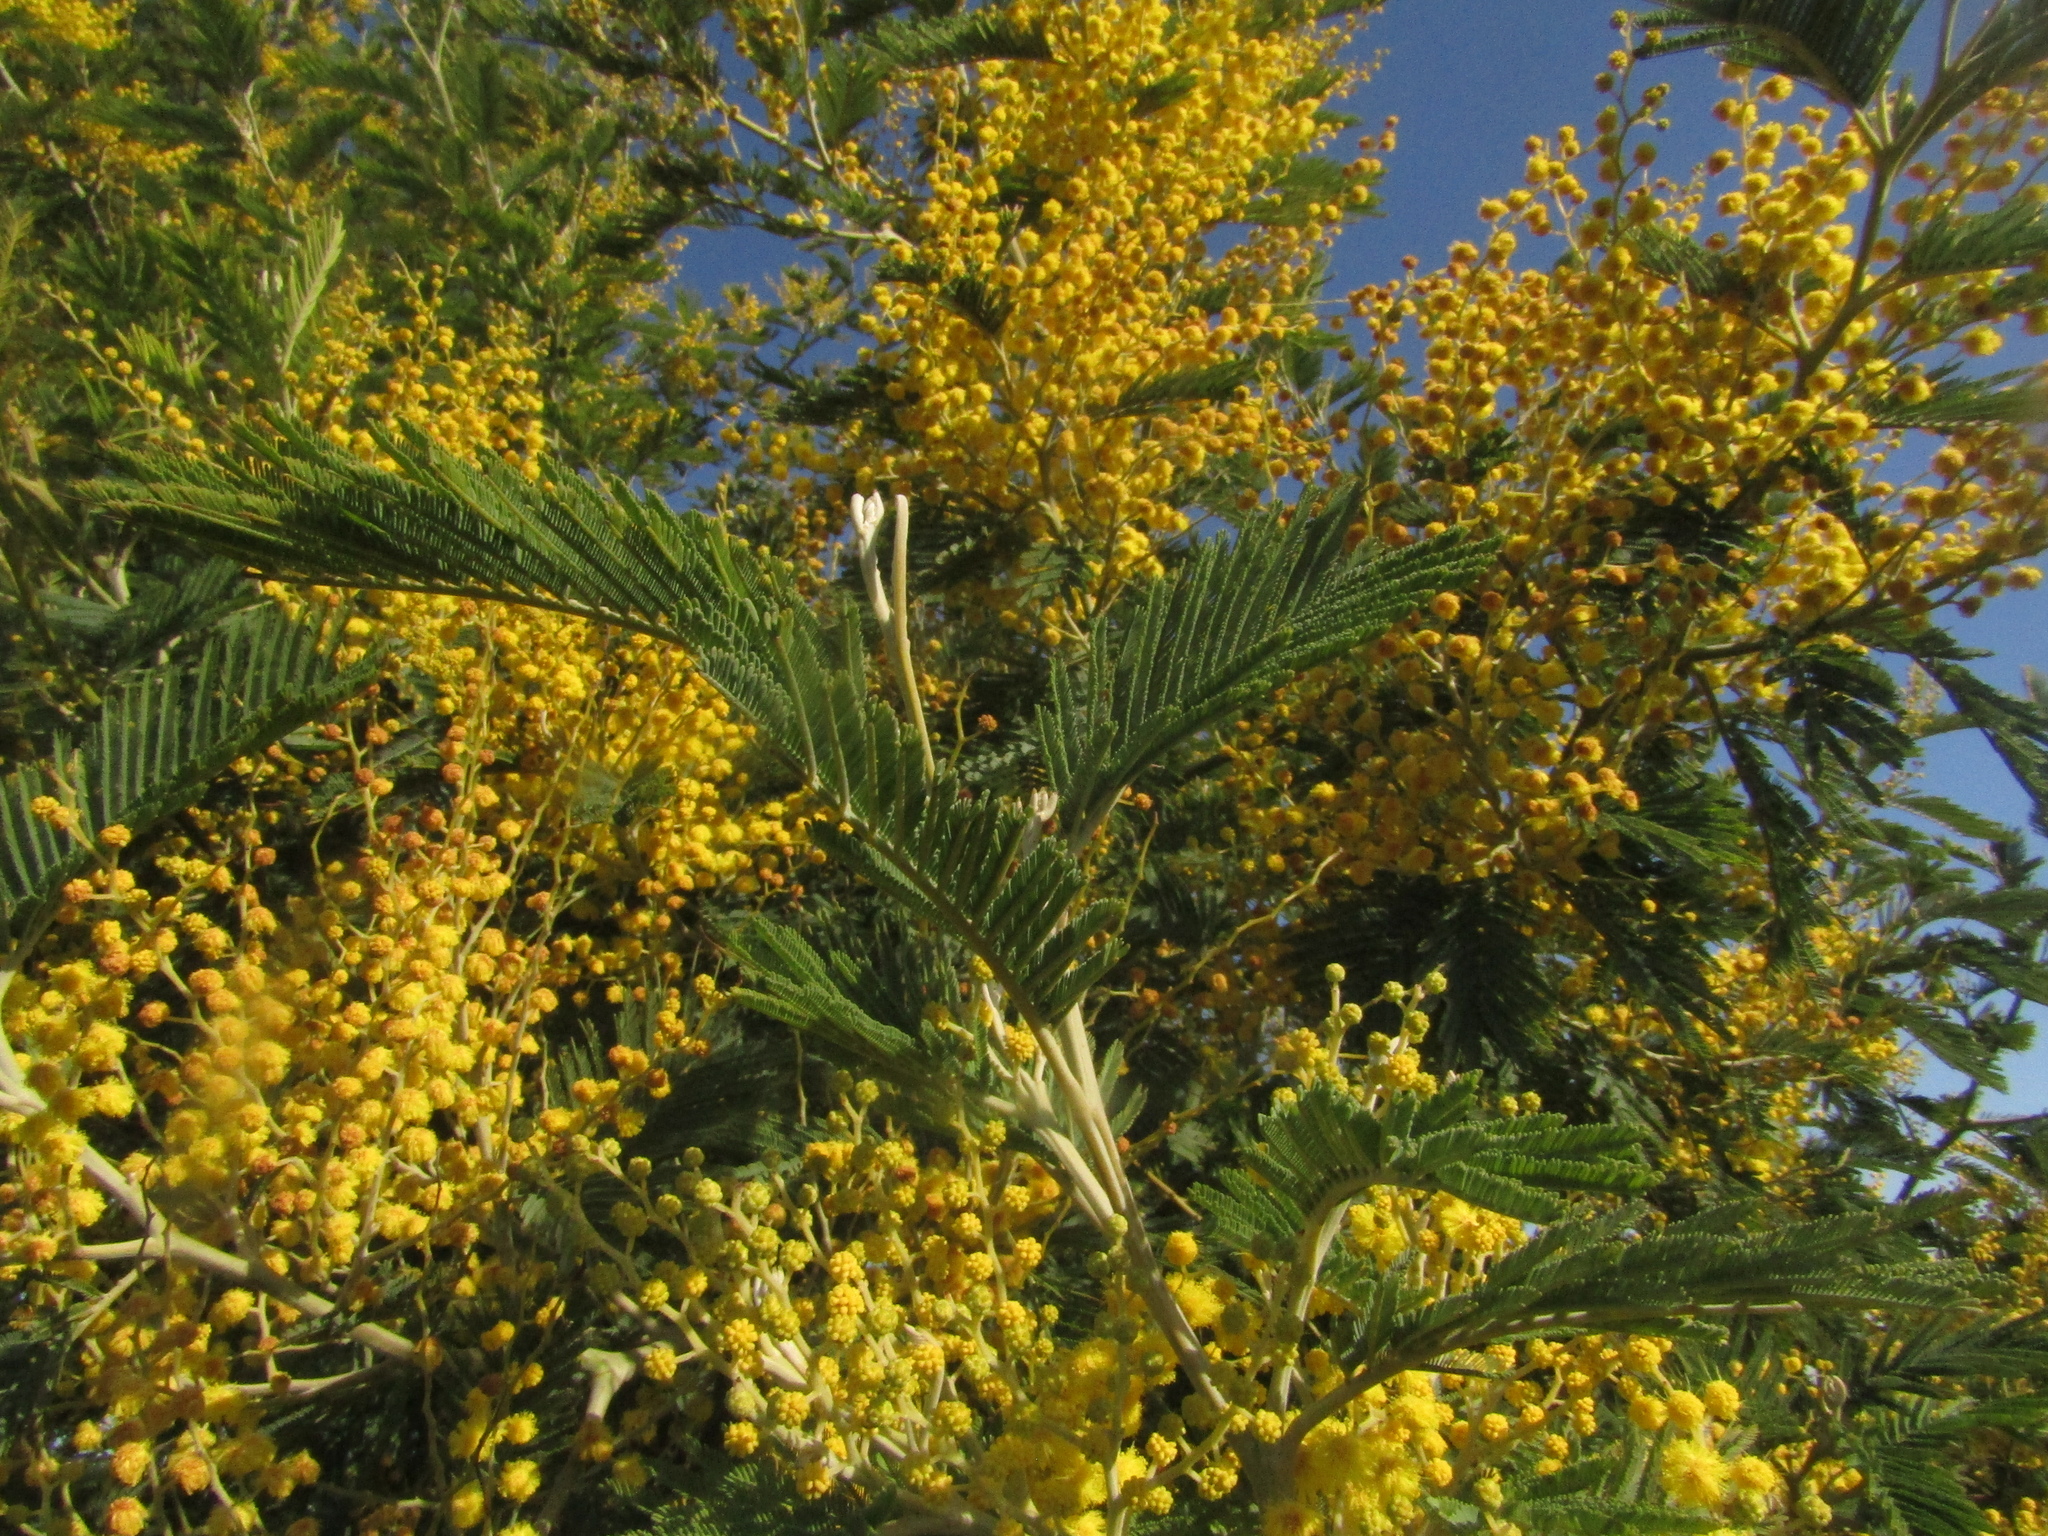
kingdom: Plantae
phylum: Tracheophyta
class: Magnoliopsida
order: Fabales
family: Fabaceae
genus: Acacia
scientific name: Acacia dealbata
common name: Silver wattle
